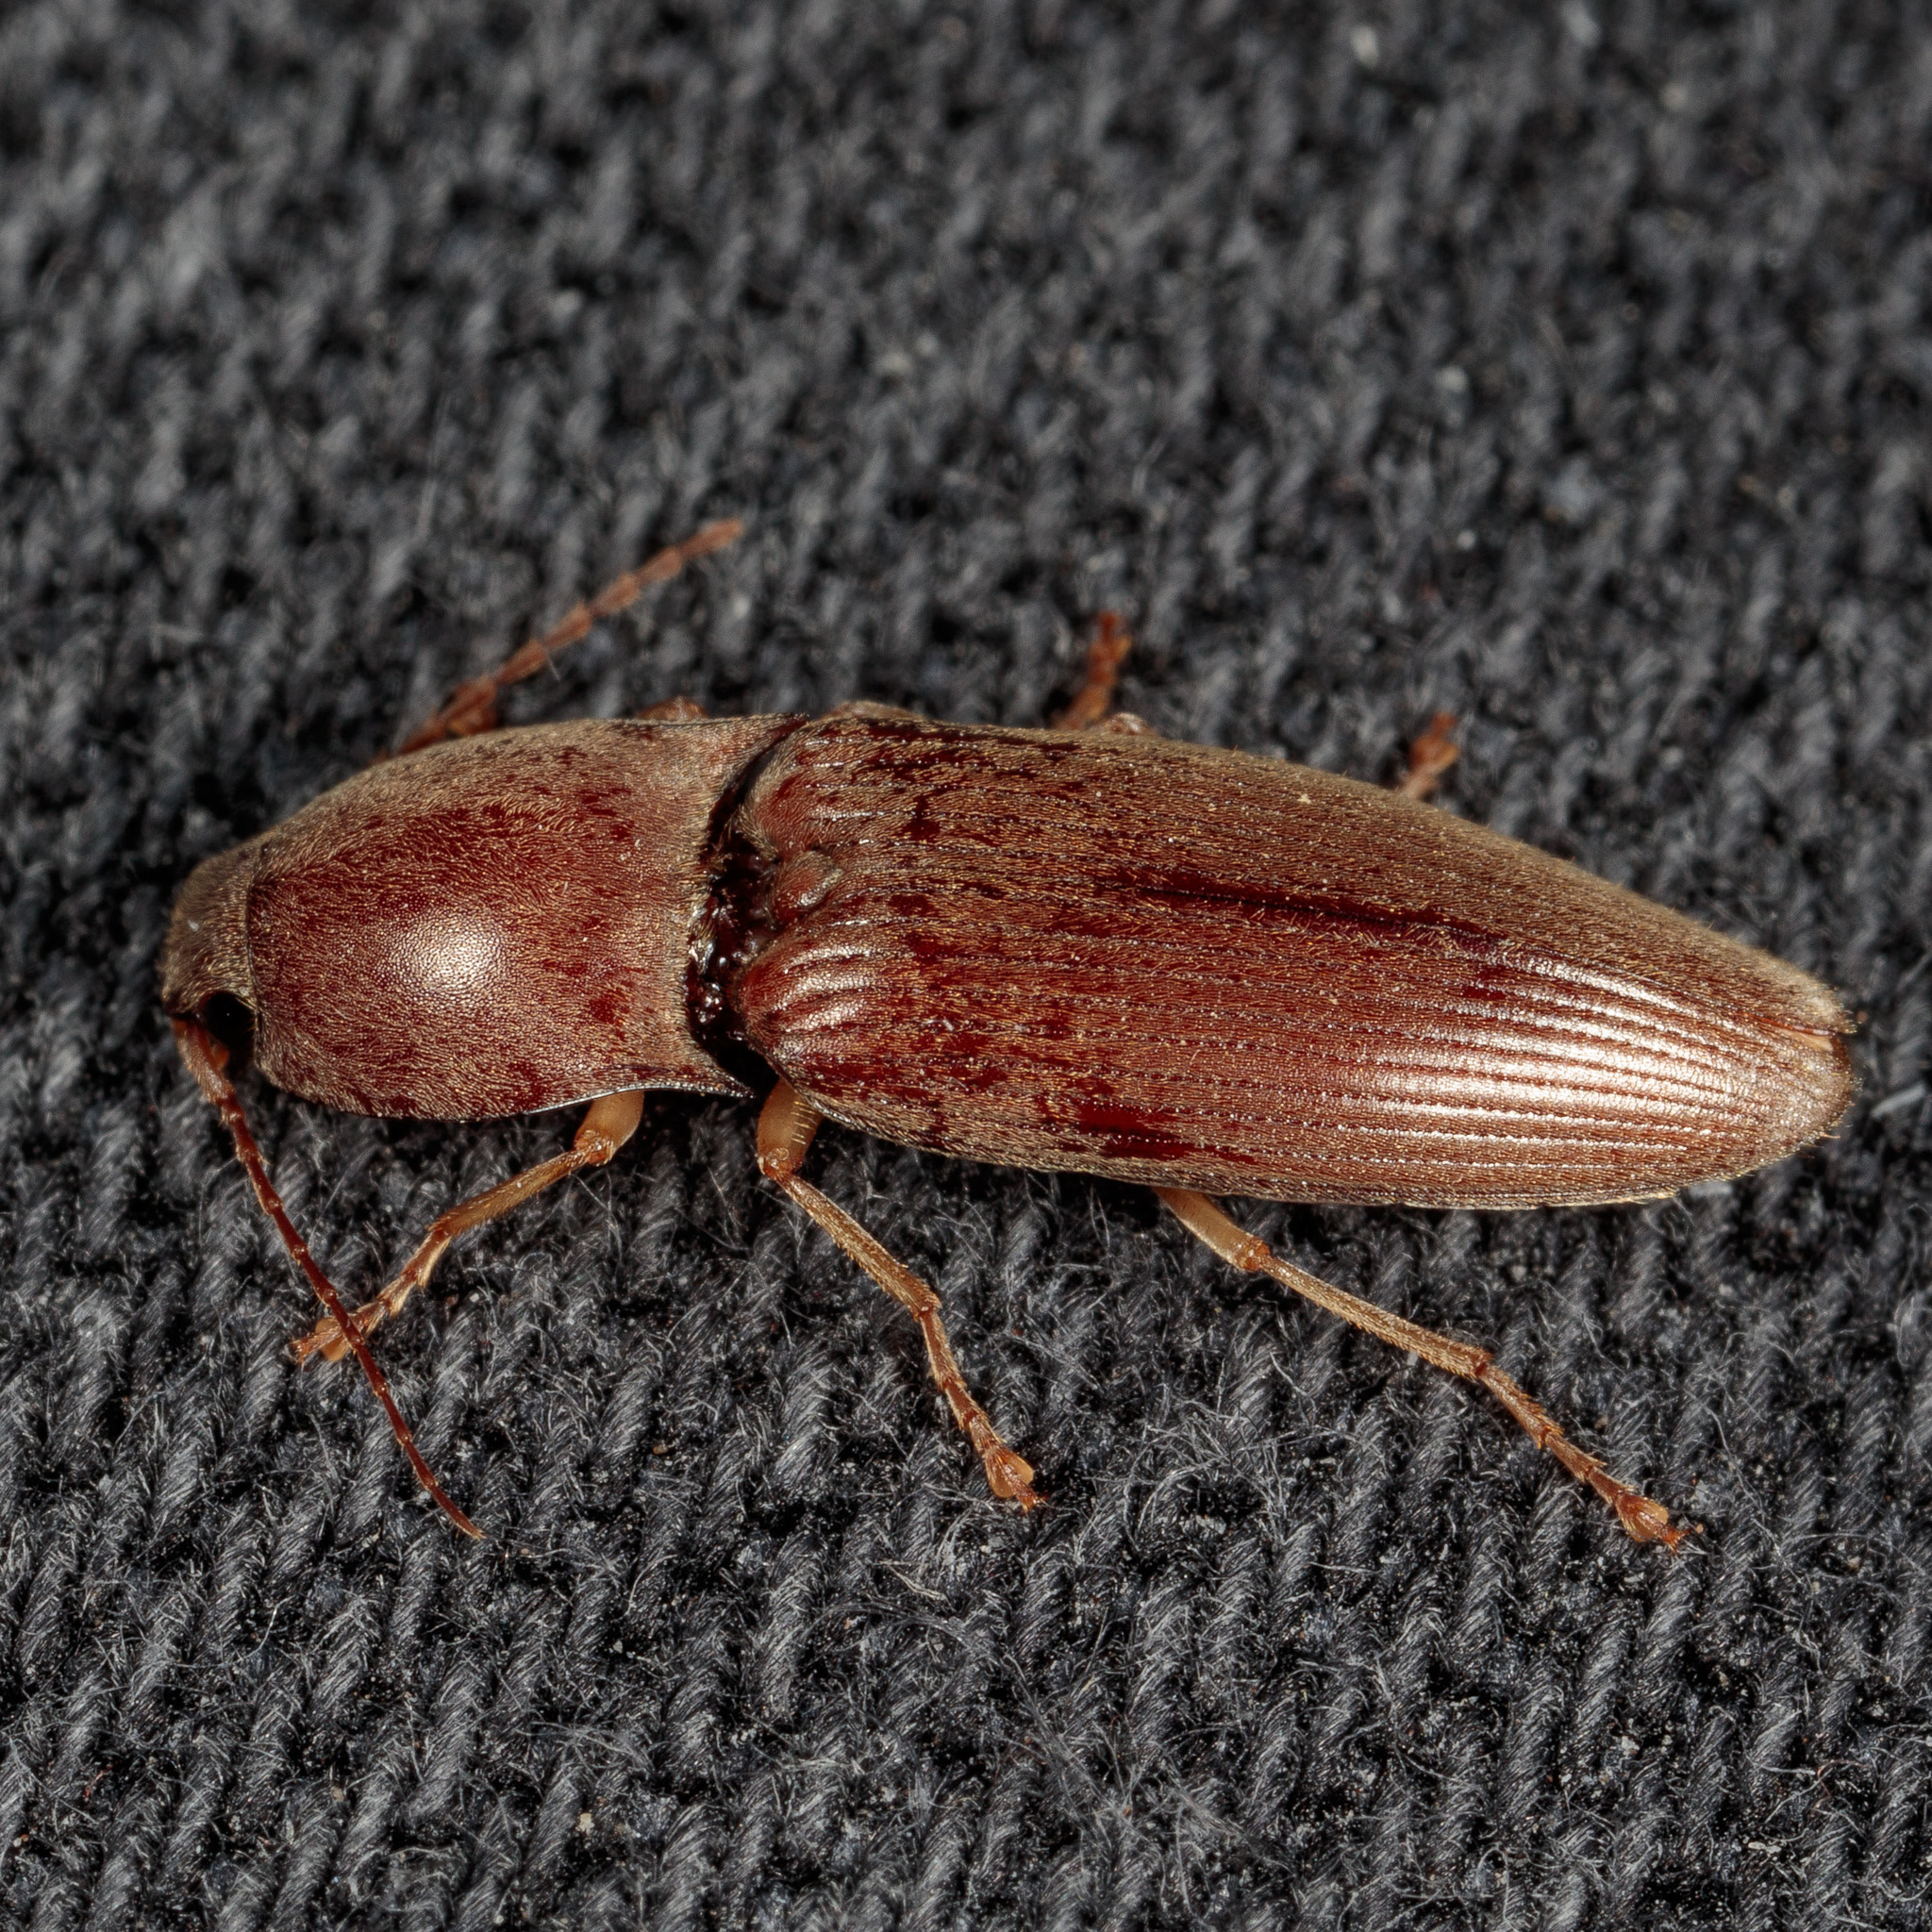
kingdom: Animalia
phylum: Arthropoda
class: Insecta
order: Coleoptera
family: Elateridae
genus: Monocrepidius
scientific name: Monocrepidius lividus
